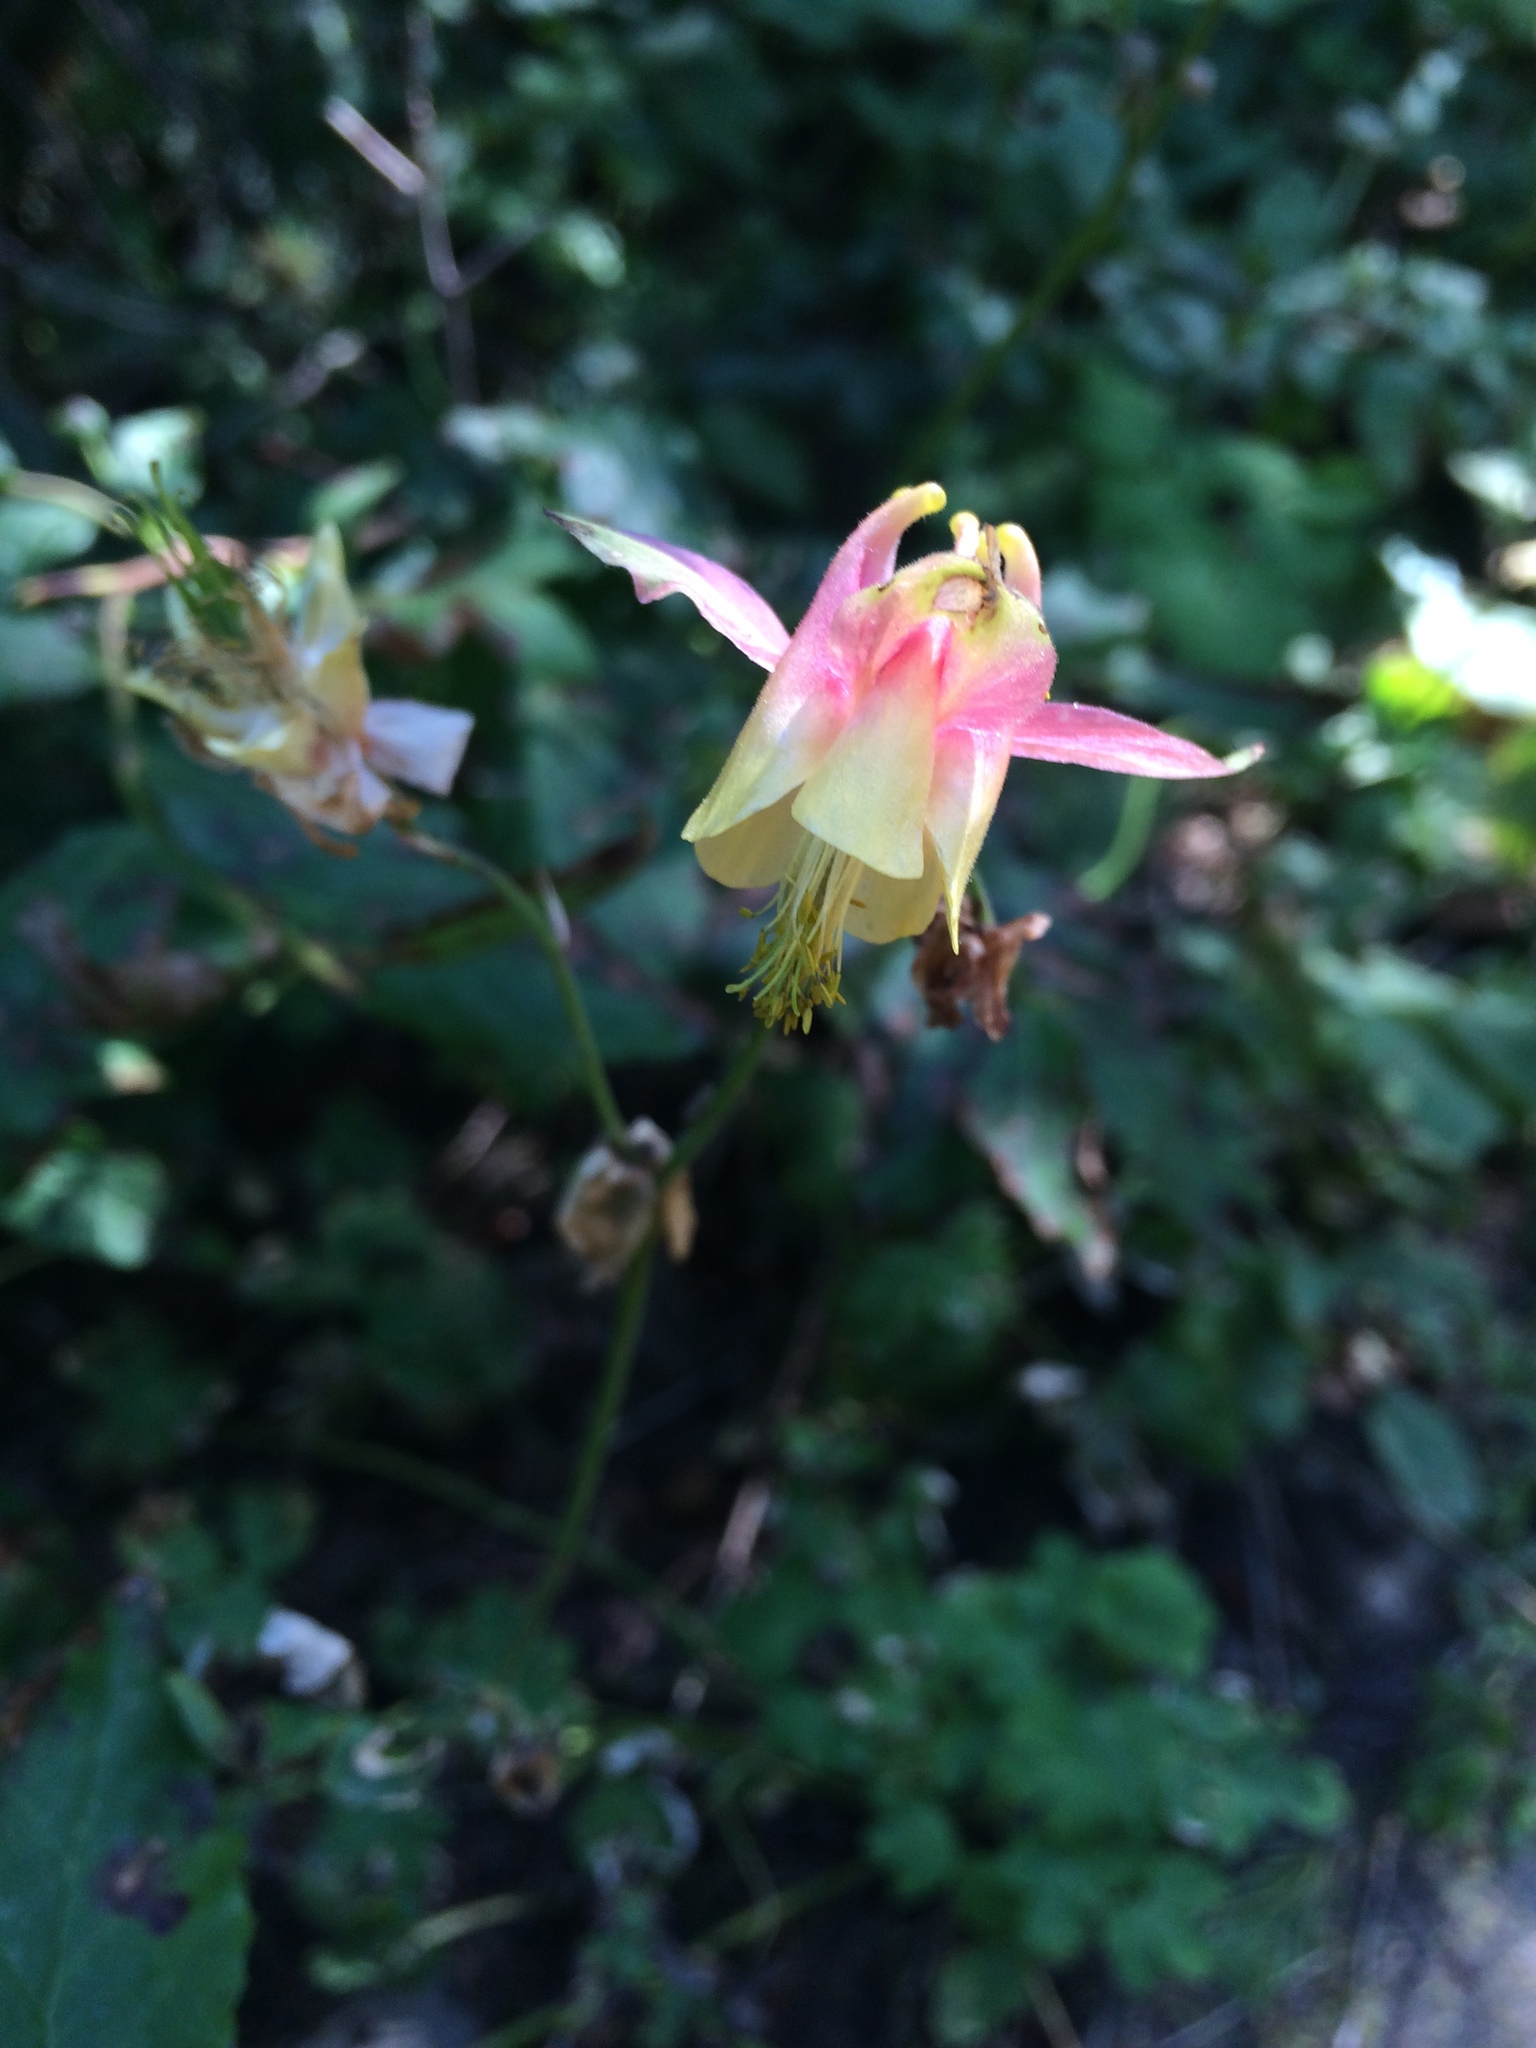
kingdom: Plantae
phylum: Tracheophyta
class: Magnoliopsida
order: Ranunculales
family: Ranunculaceae
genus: Aquilegia
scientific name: Aquilegia flavescens
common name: Yellow columbine
